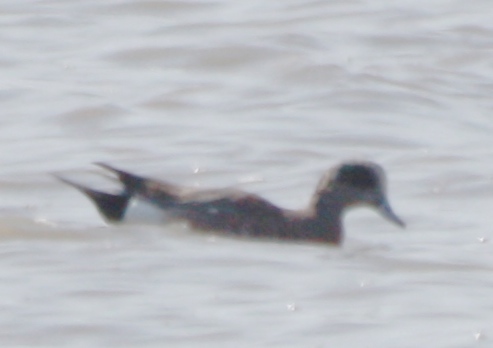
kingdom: Animalia
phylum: Chordata
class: Aves
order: Anseriformes
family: Anatidae
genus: Mareca
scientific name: Mareca americana
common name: American wigeon
